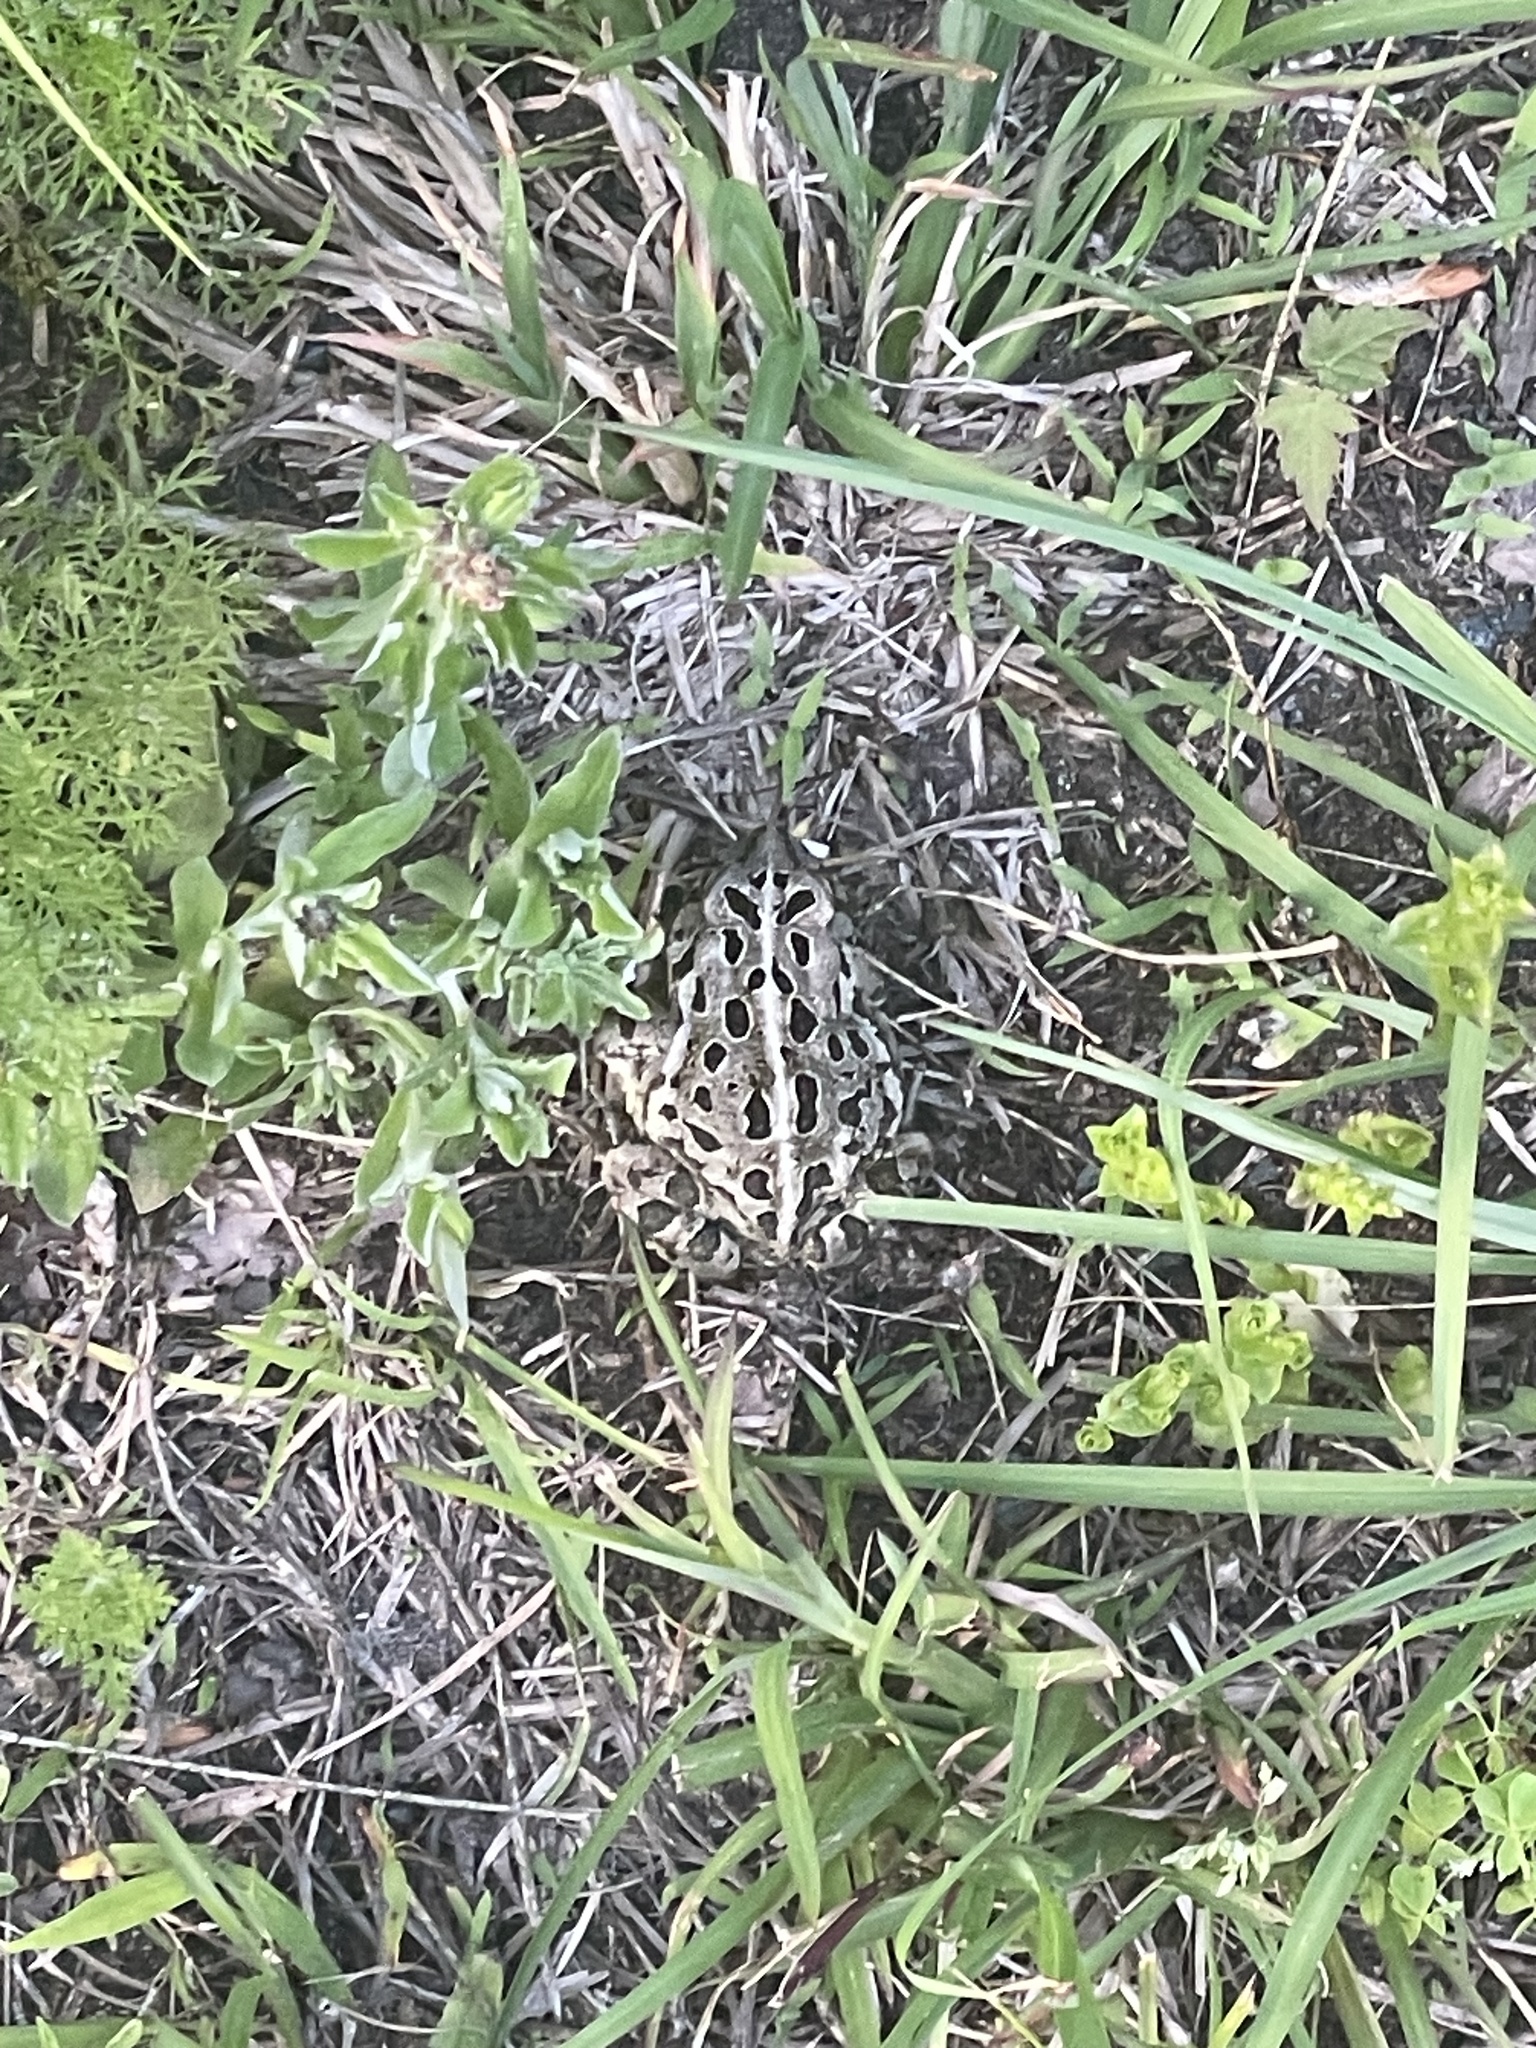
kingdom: Animalia
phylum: Chordata
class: Amphibia
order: Anura
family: Bufonidae
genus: Anaxyrus
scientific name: Anaxyrus fowleri
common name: Fowler's toad
